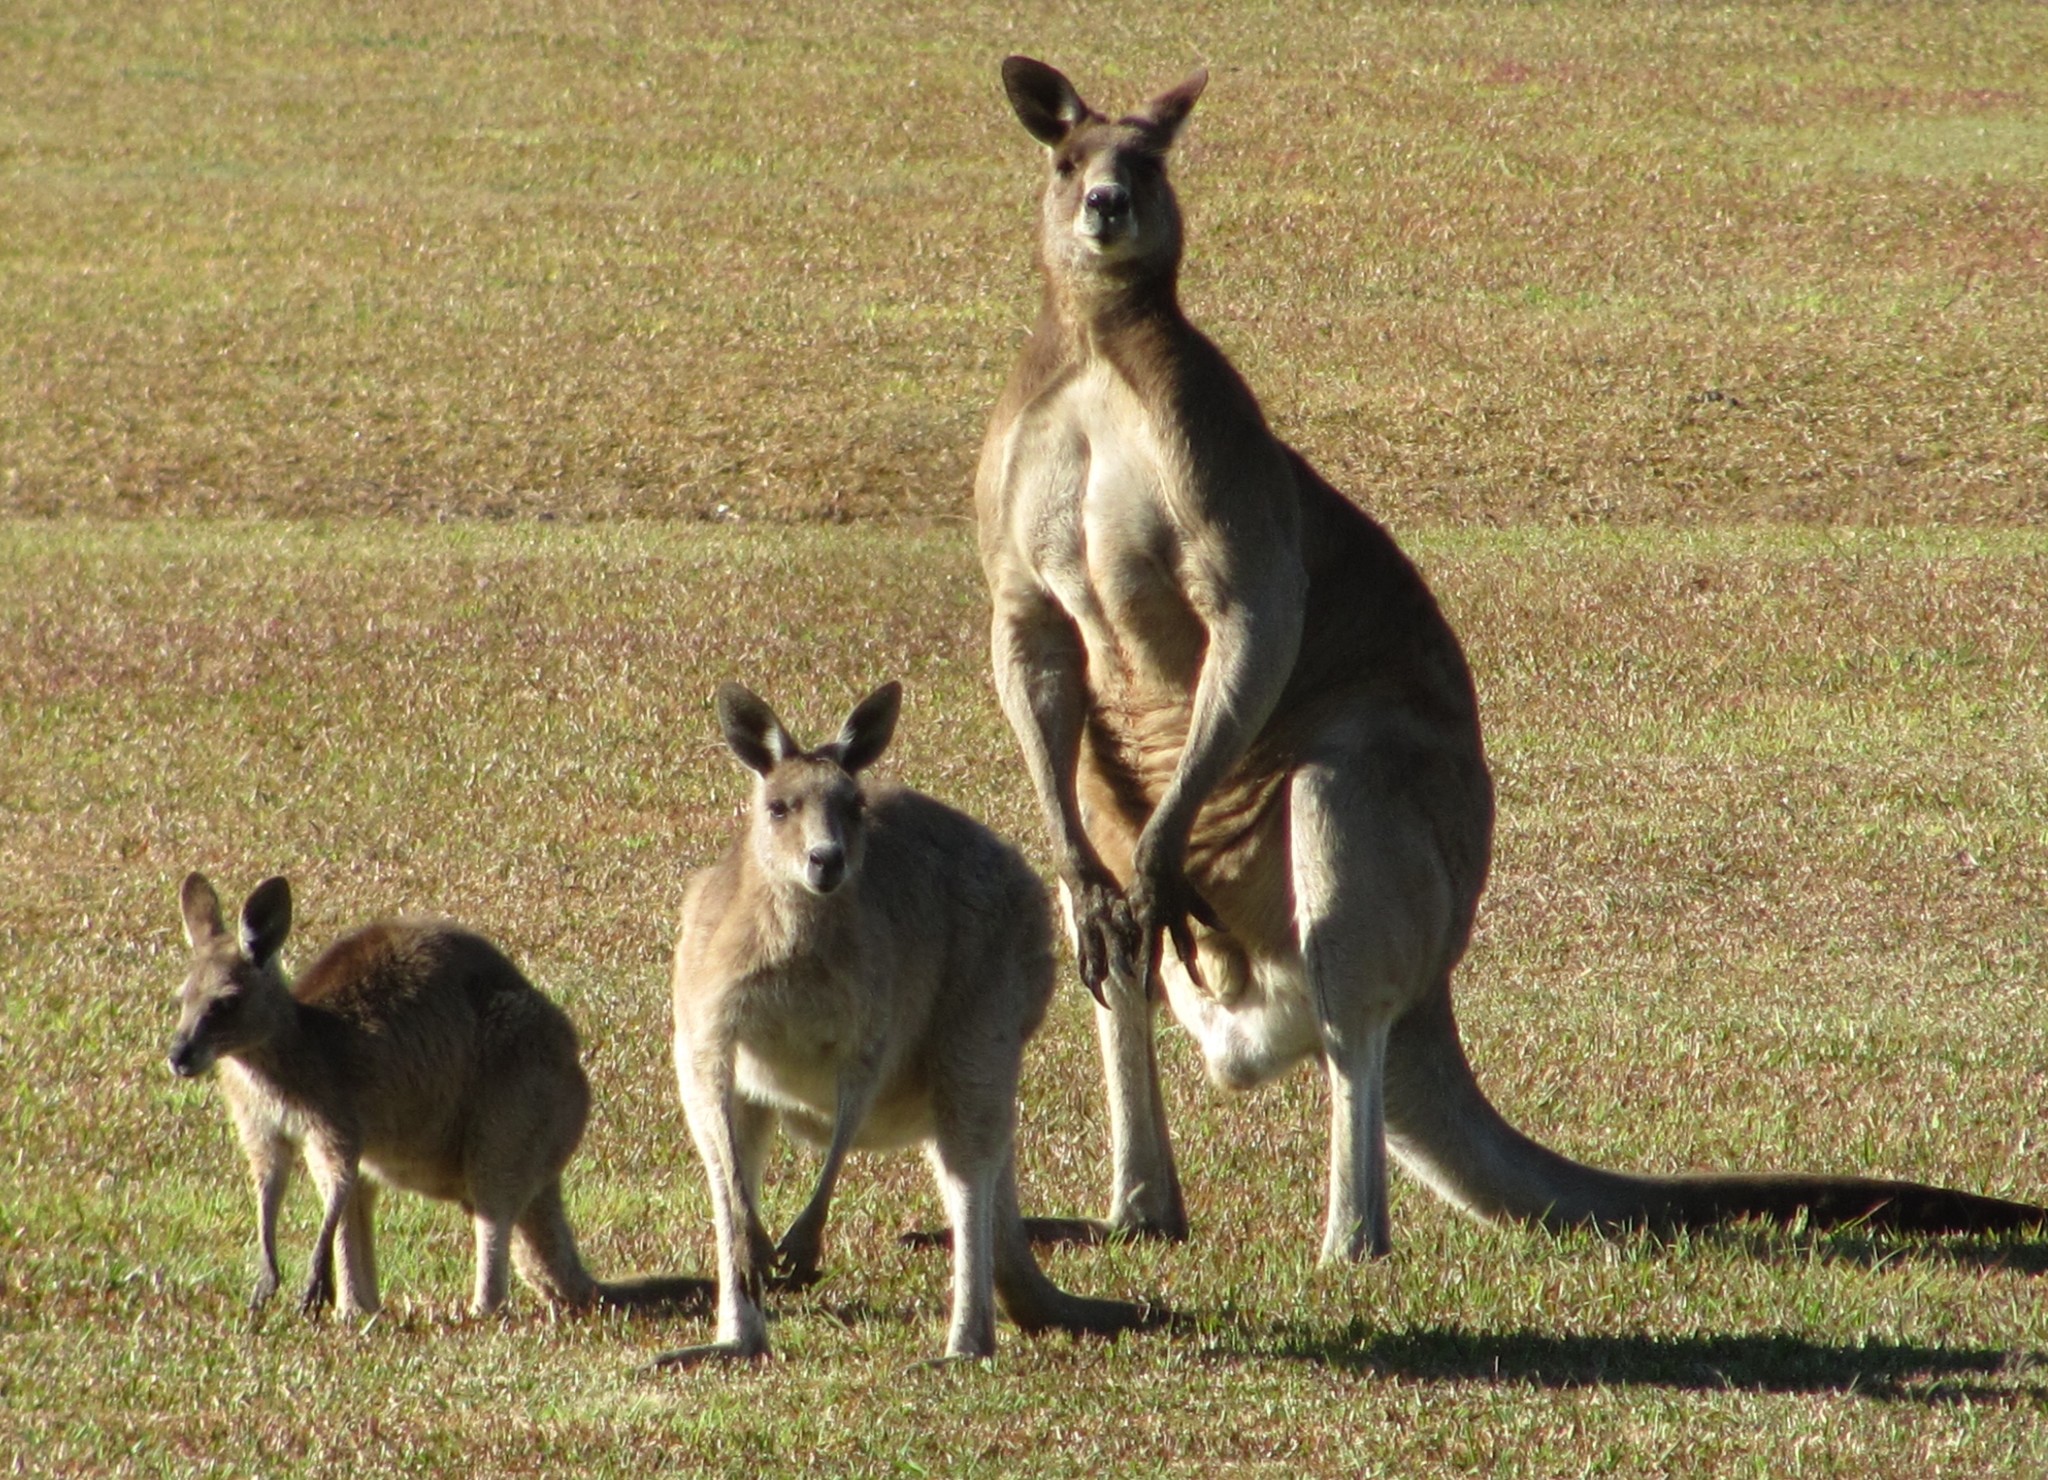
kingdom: Animalia
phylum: Chordata
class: Mammalia
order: Diprotodontia
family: Macropodidae
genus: Macropus
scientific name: Macropus giganteus
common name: Eastern grey kangaroo
